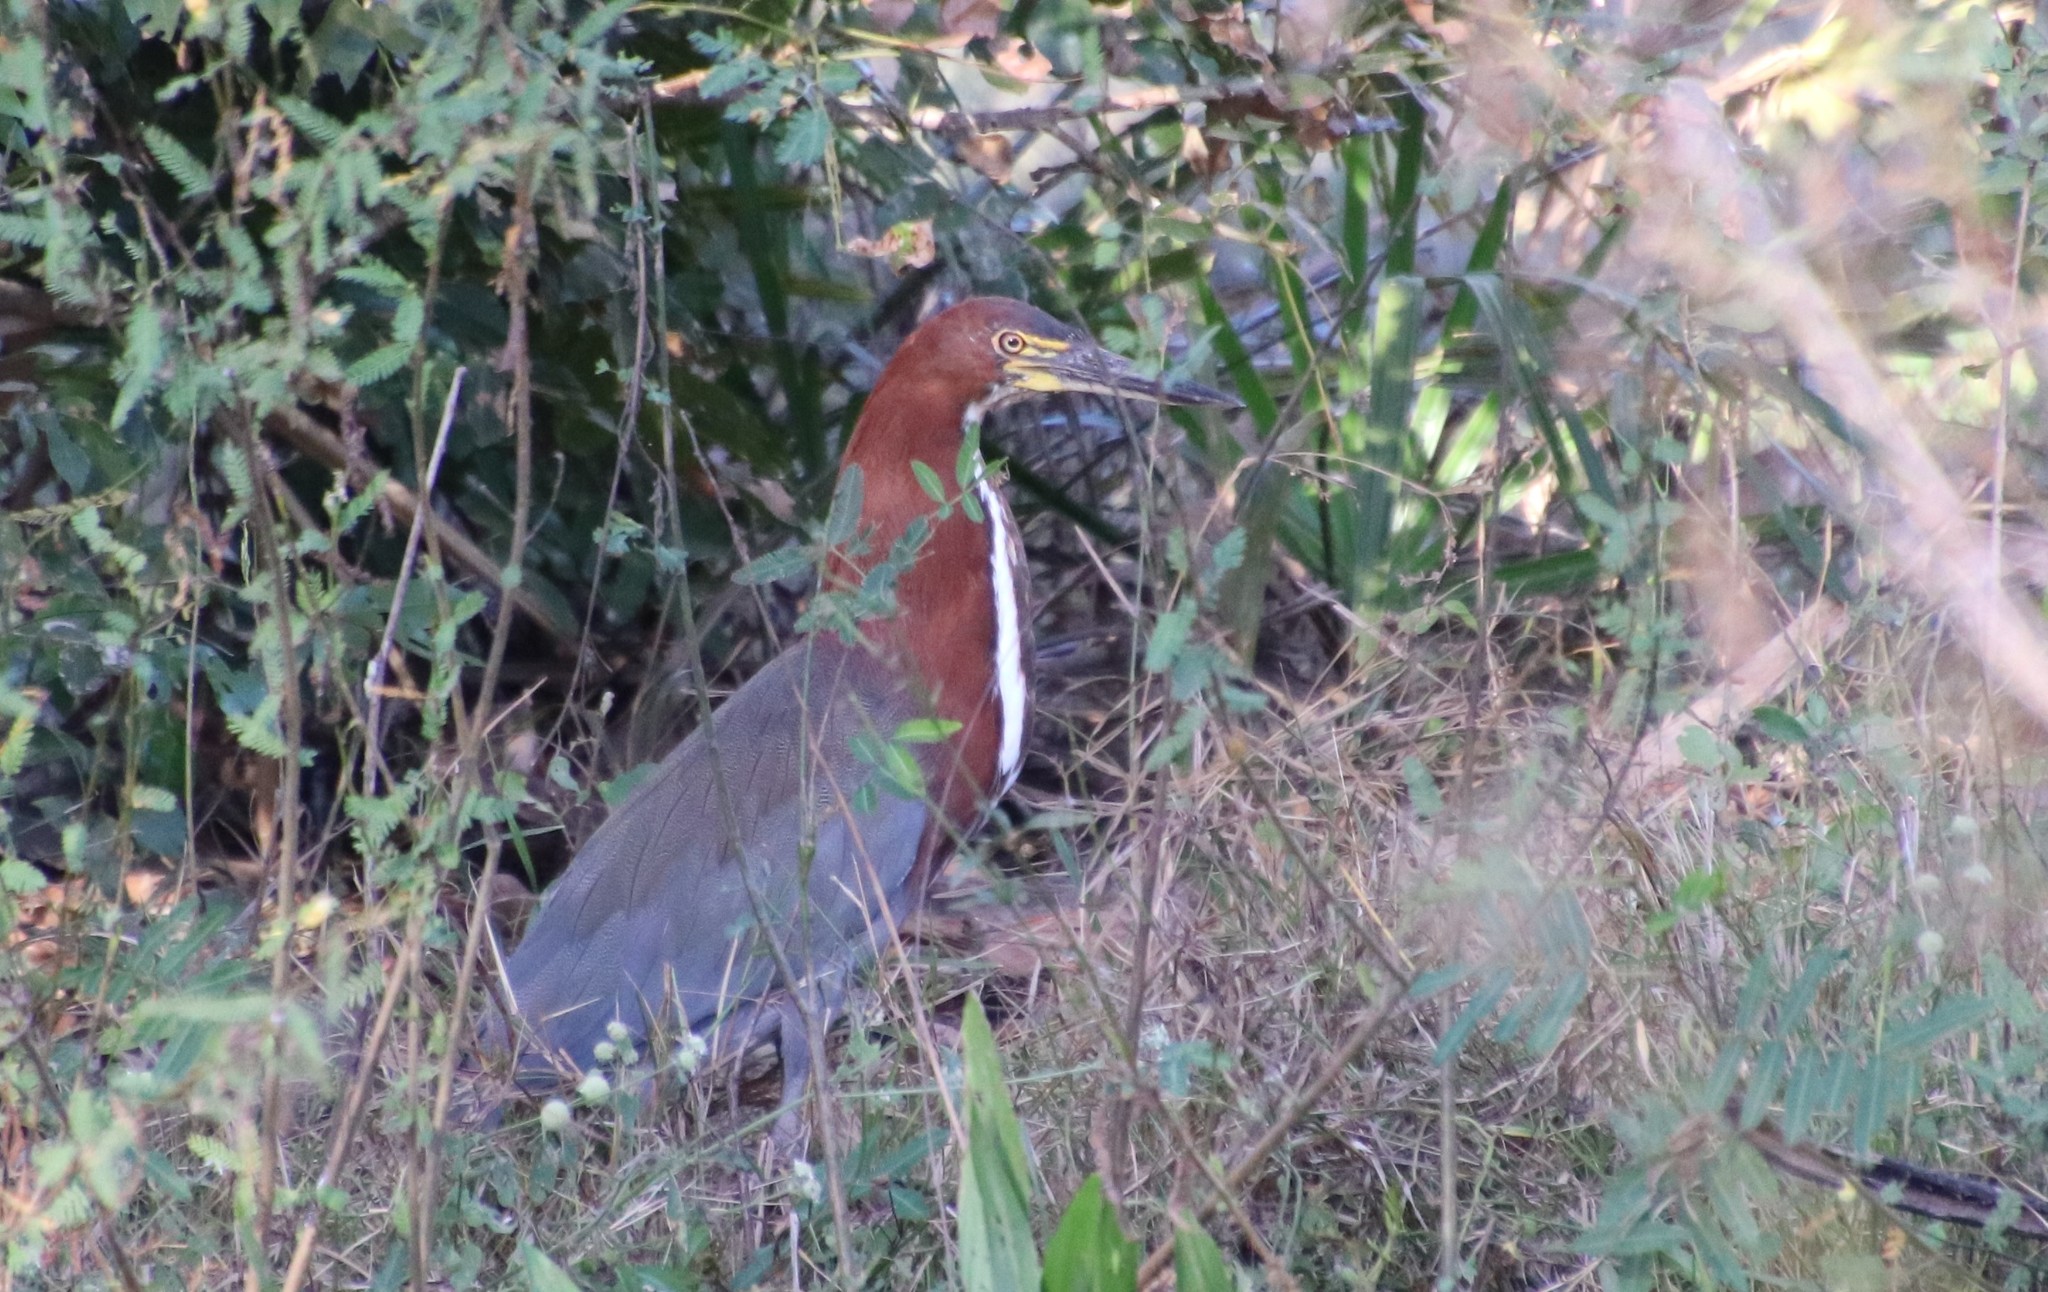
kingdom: Animalia
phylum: Chordata
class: Aves
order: Pelecaniformes
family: Ardeidae
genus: Tigrisoma
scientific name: Tigrisoma lineatum
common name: Rufescent tiger-heron
